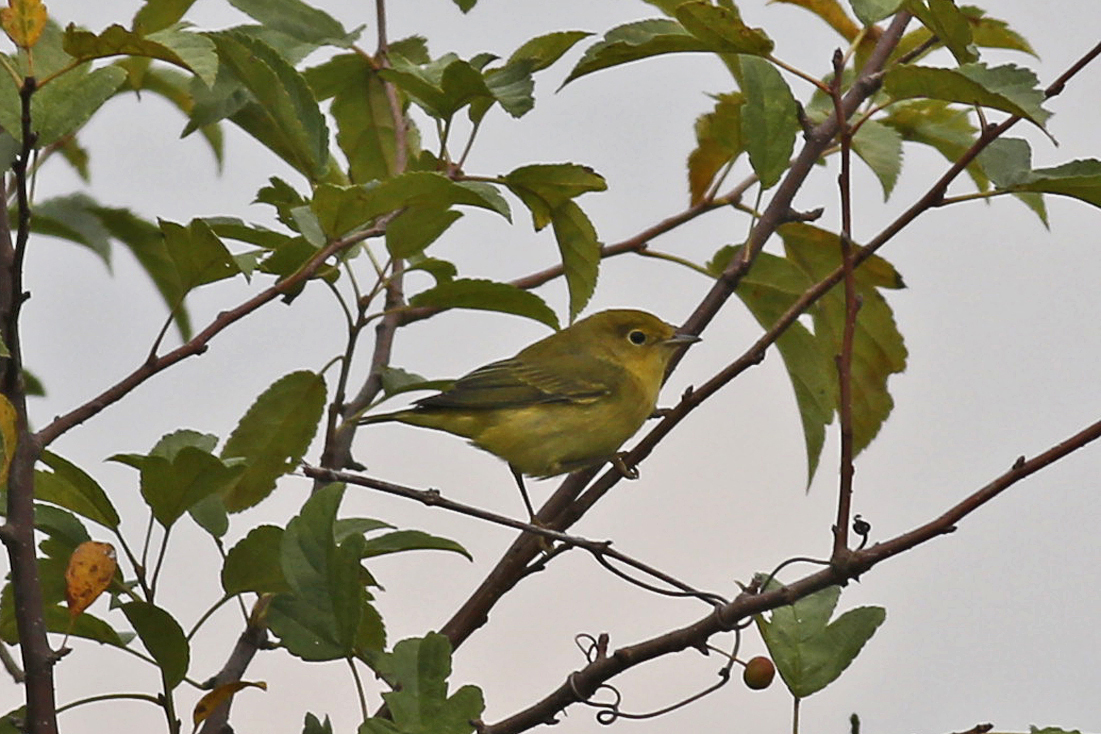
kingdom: Animalia
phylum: Chordata
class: Aves
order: Passeriformes
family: Parulidae
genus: Setophaga
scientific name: Setophaga petechia
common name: Yellow warbler
